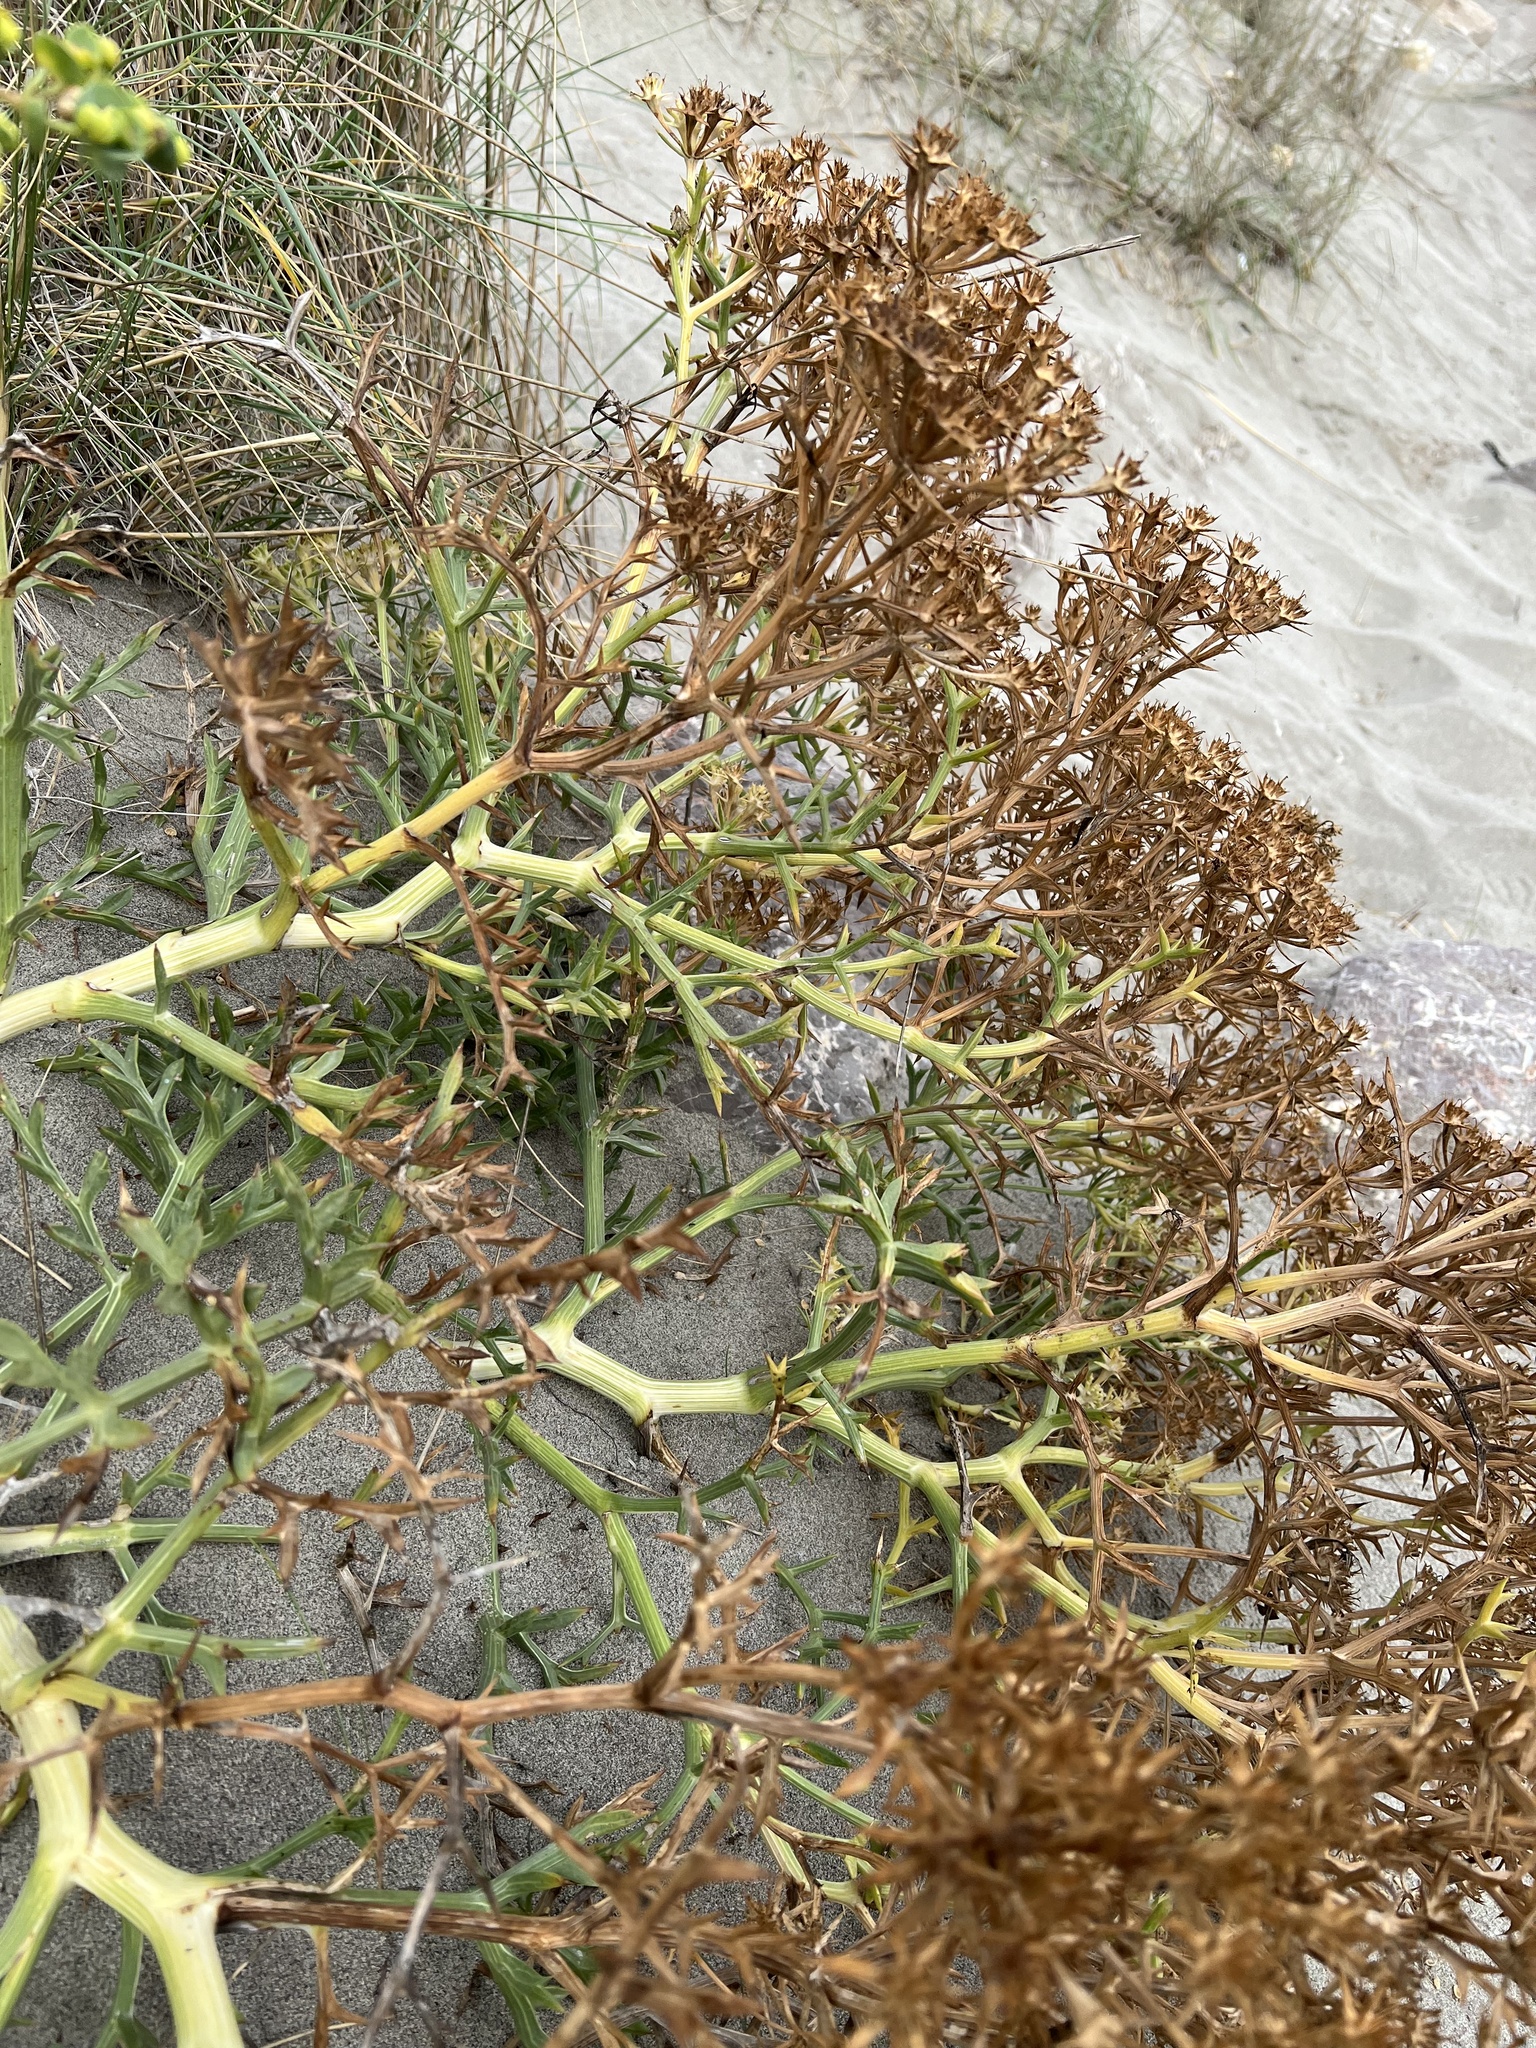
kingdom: Plantae
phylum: Tracheophyta
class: Magnoliopsida
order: Apiales
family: Apiaceae
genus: Echinophora
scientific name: Echinophora spinosa
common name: Prickly samphire
